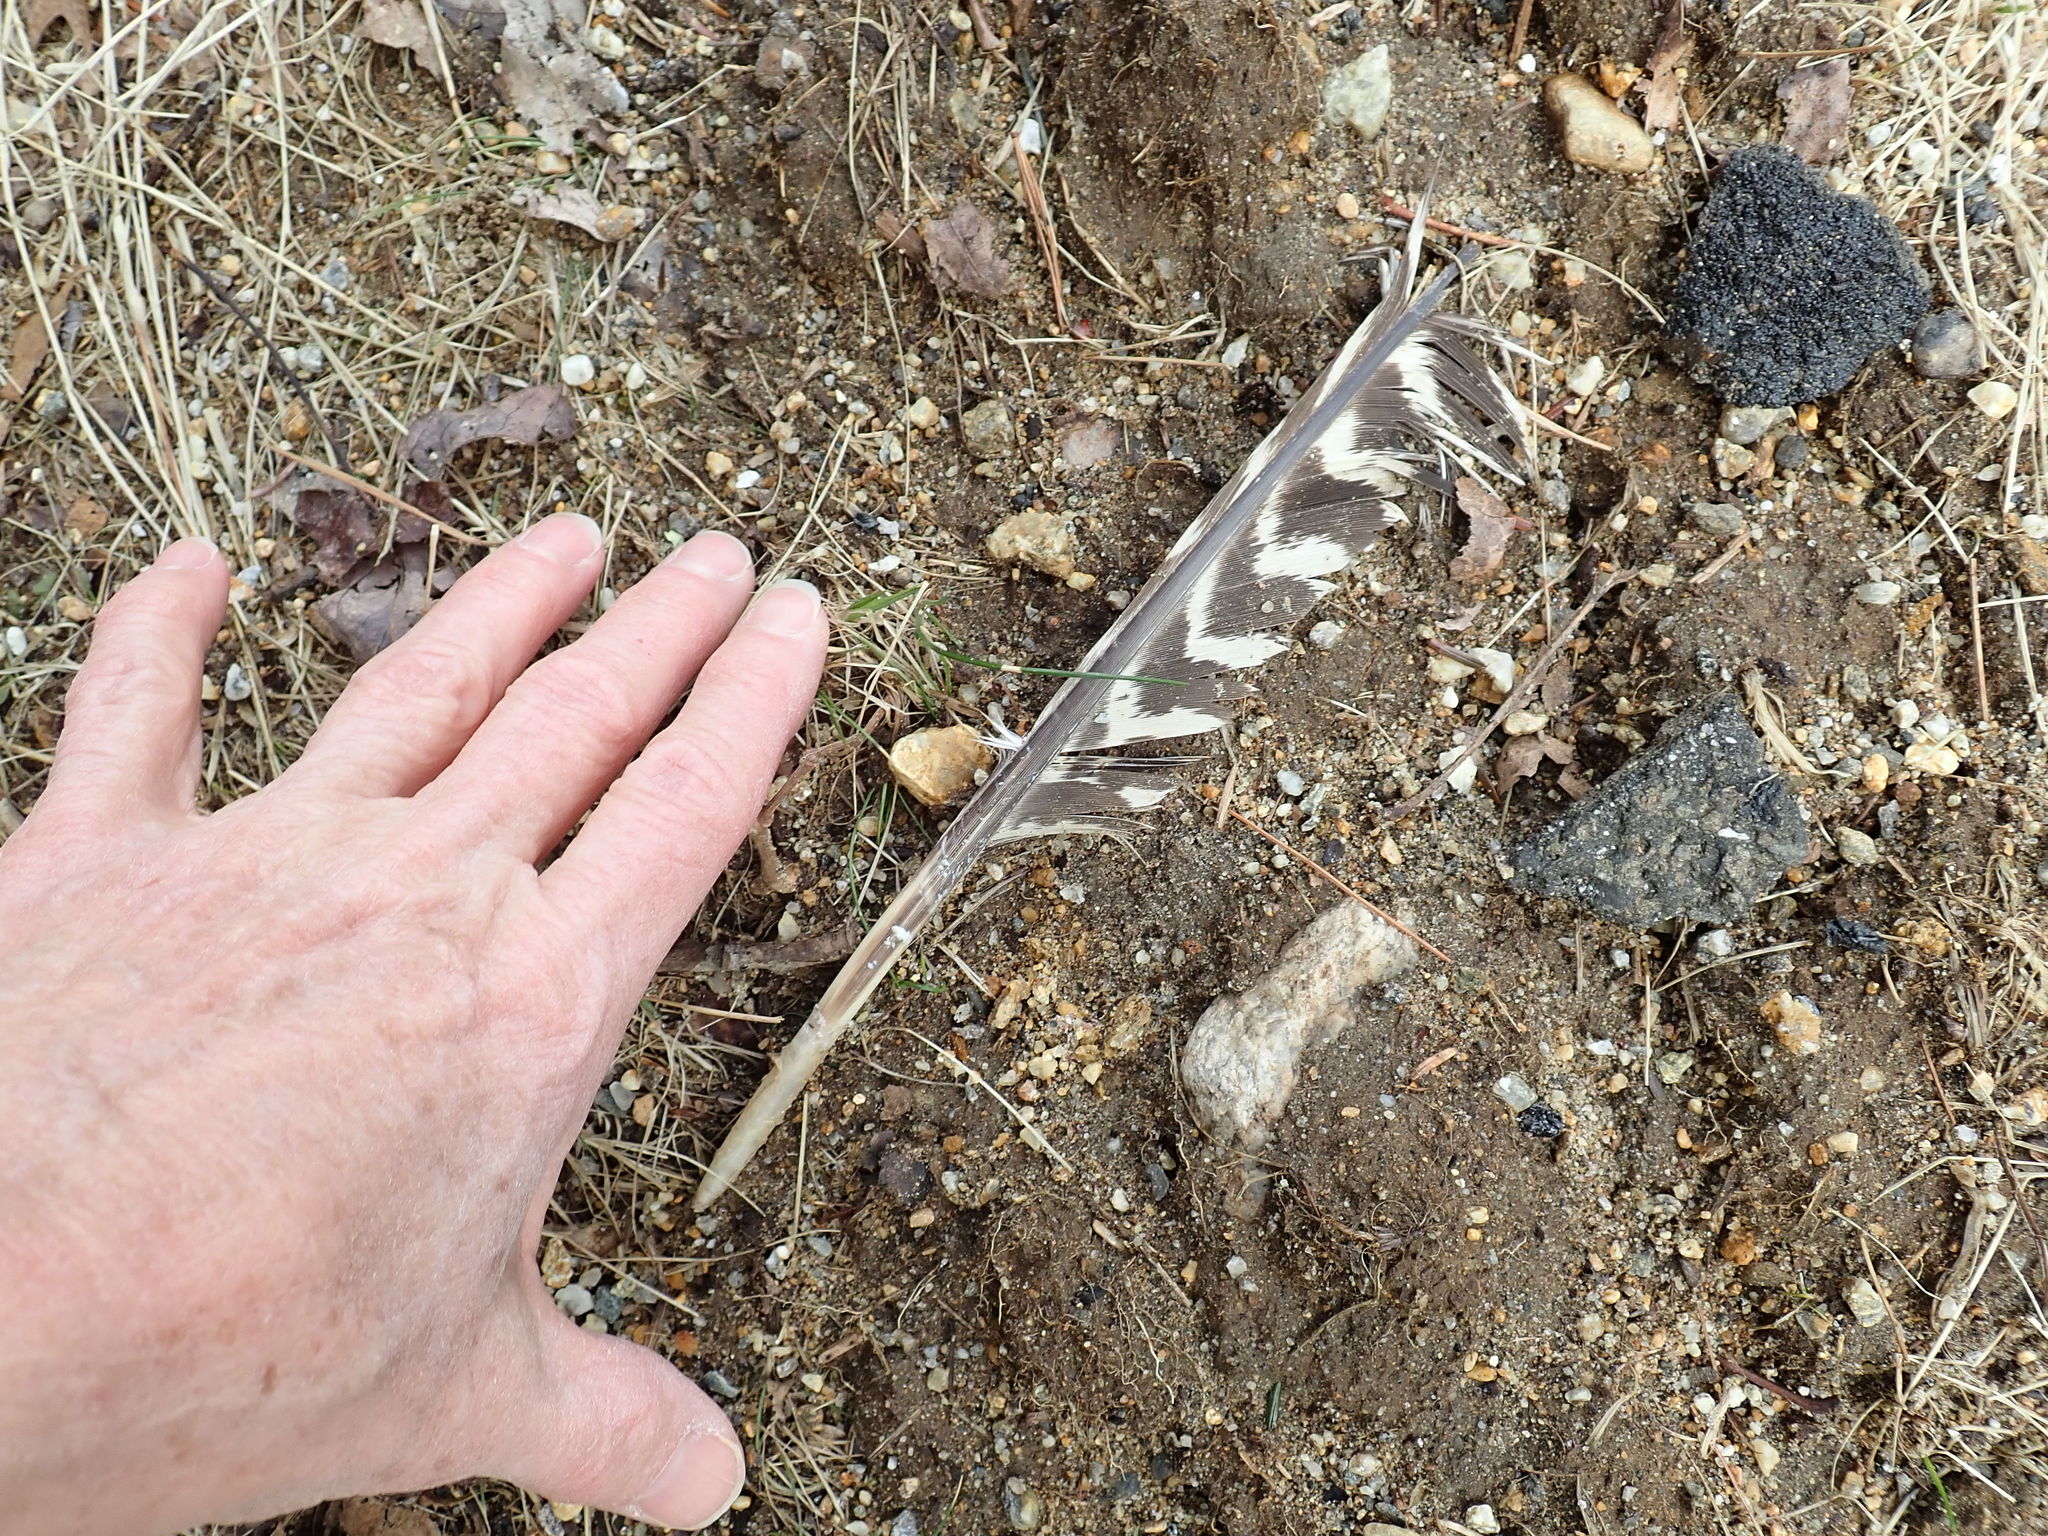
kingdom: Animalia
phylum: Chordata
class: Aves
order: Galliformes
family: Phasianidae
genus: Meleagris
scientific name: Meleagris gallopavo
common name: Wild turkey
